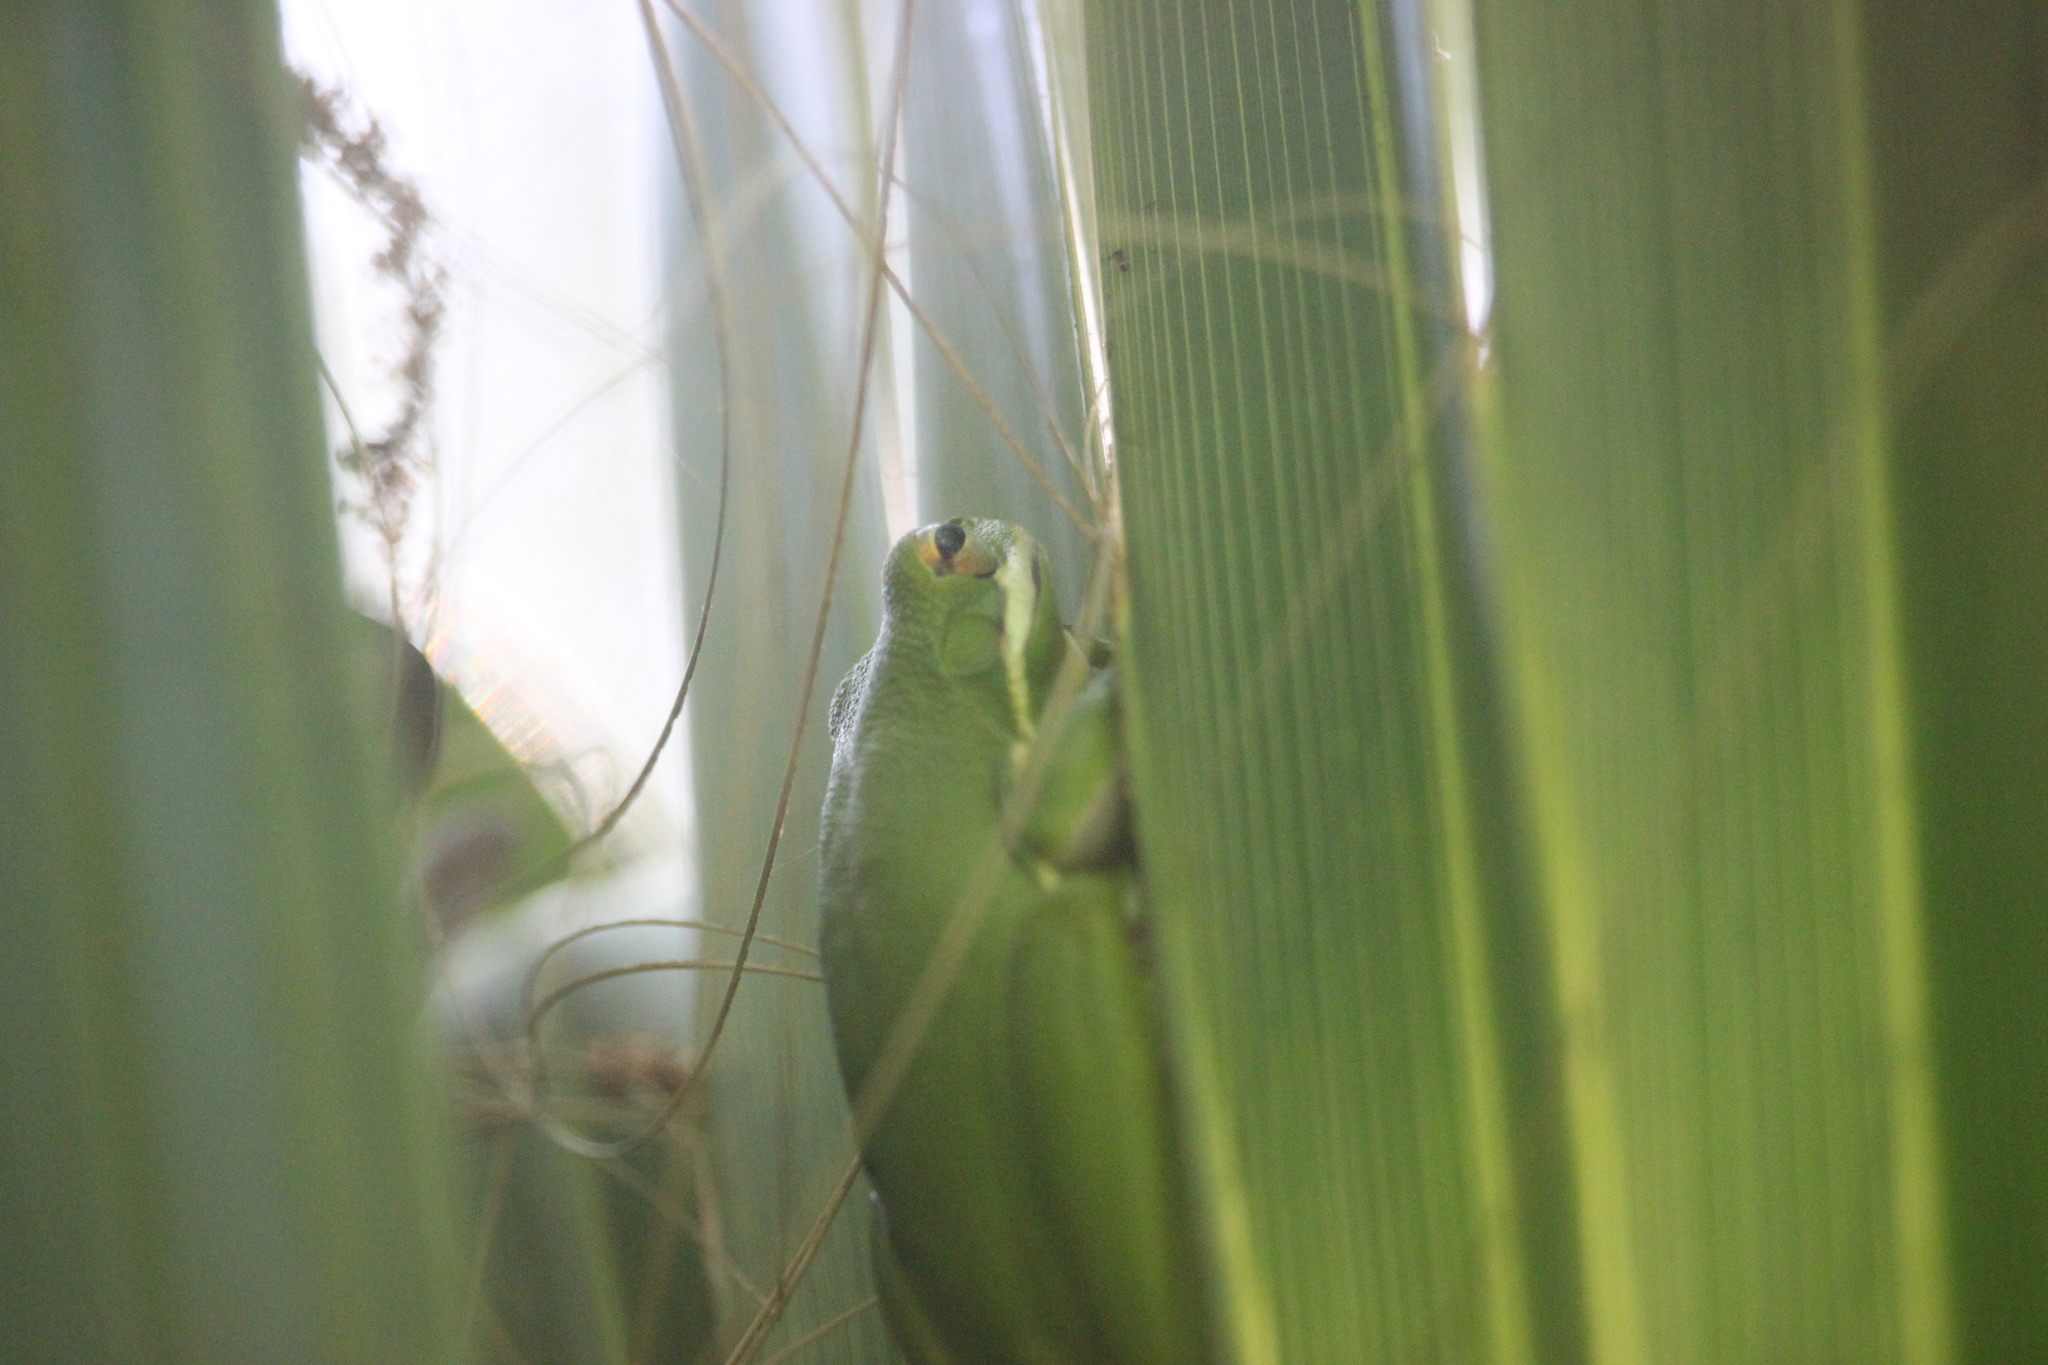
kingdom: Animalia
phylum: Chordata
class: Amphibia
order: Anura
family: Hylidae
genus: Dryophytes
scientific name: Dryophytes cinereus
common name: Green treefrog
